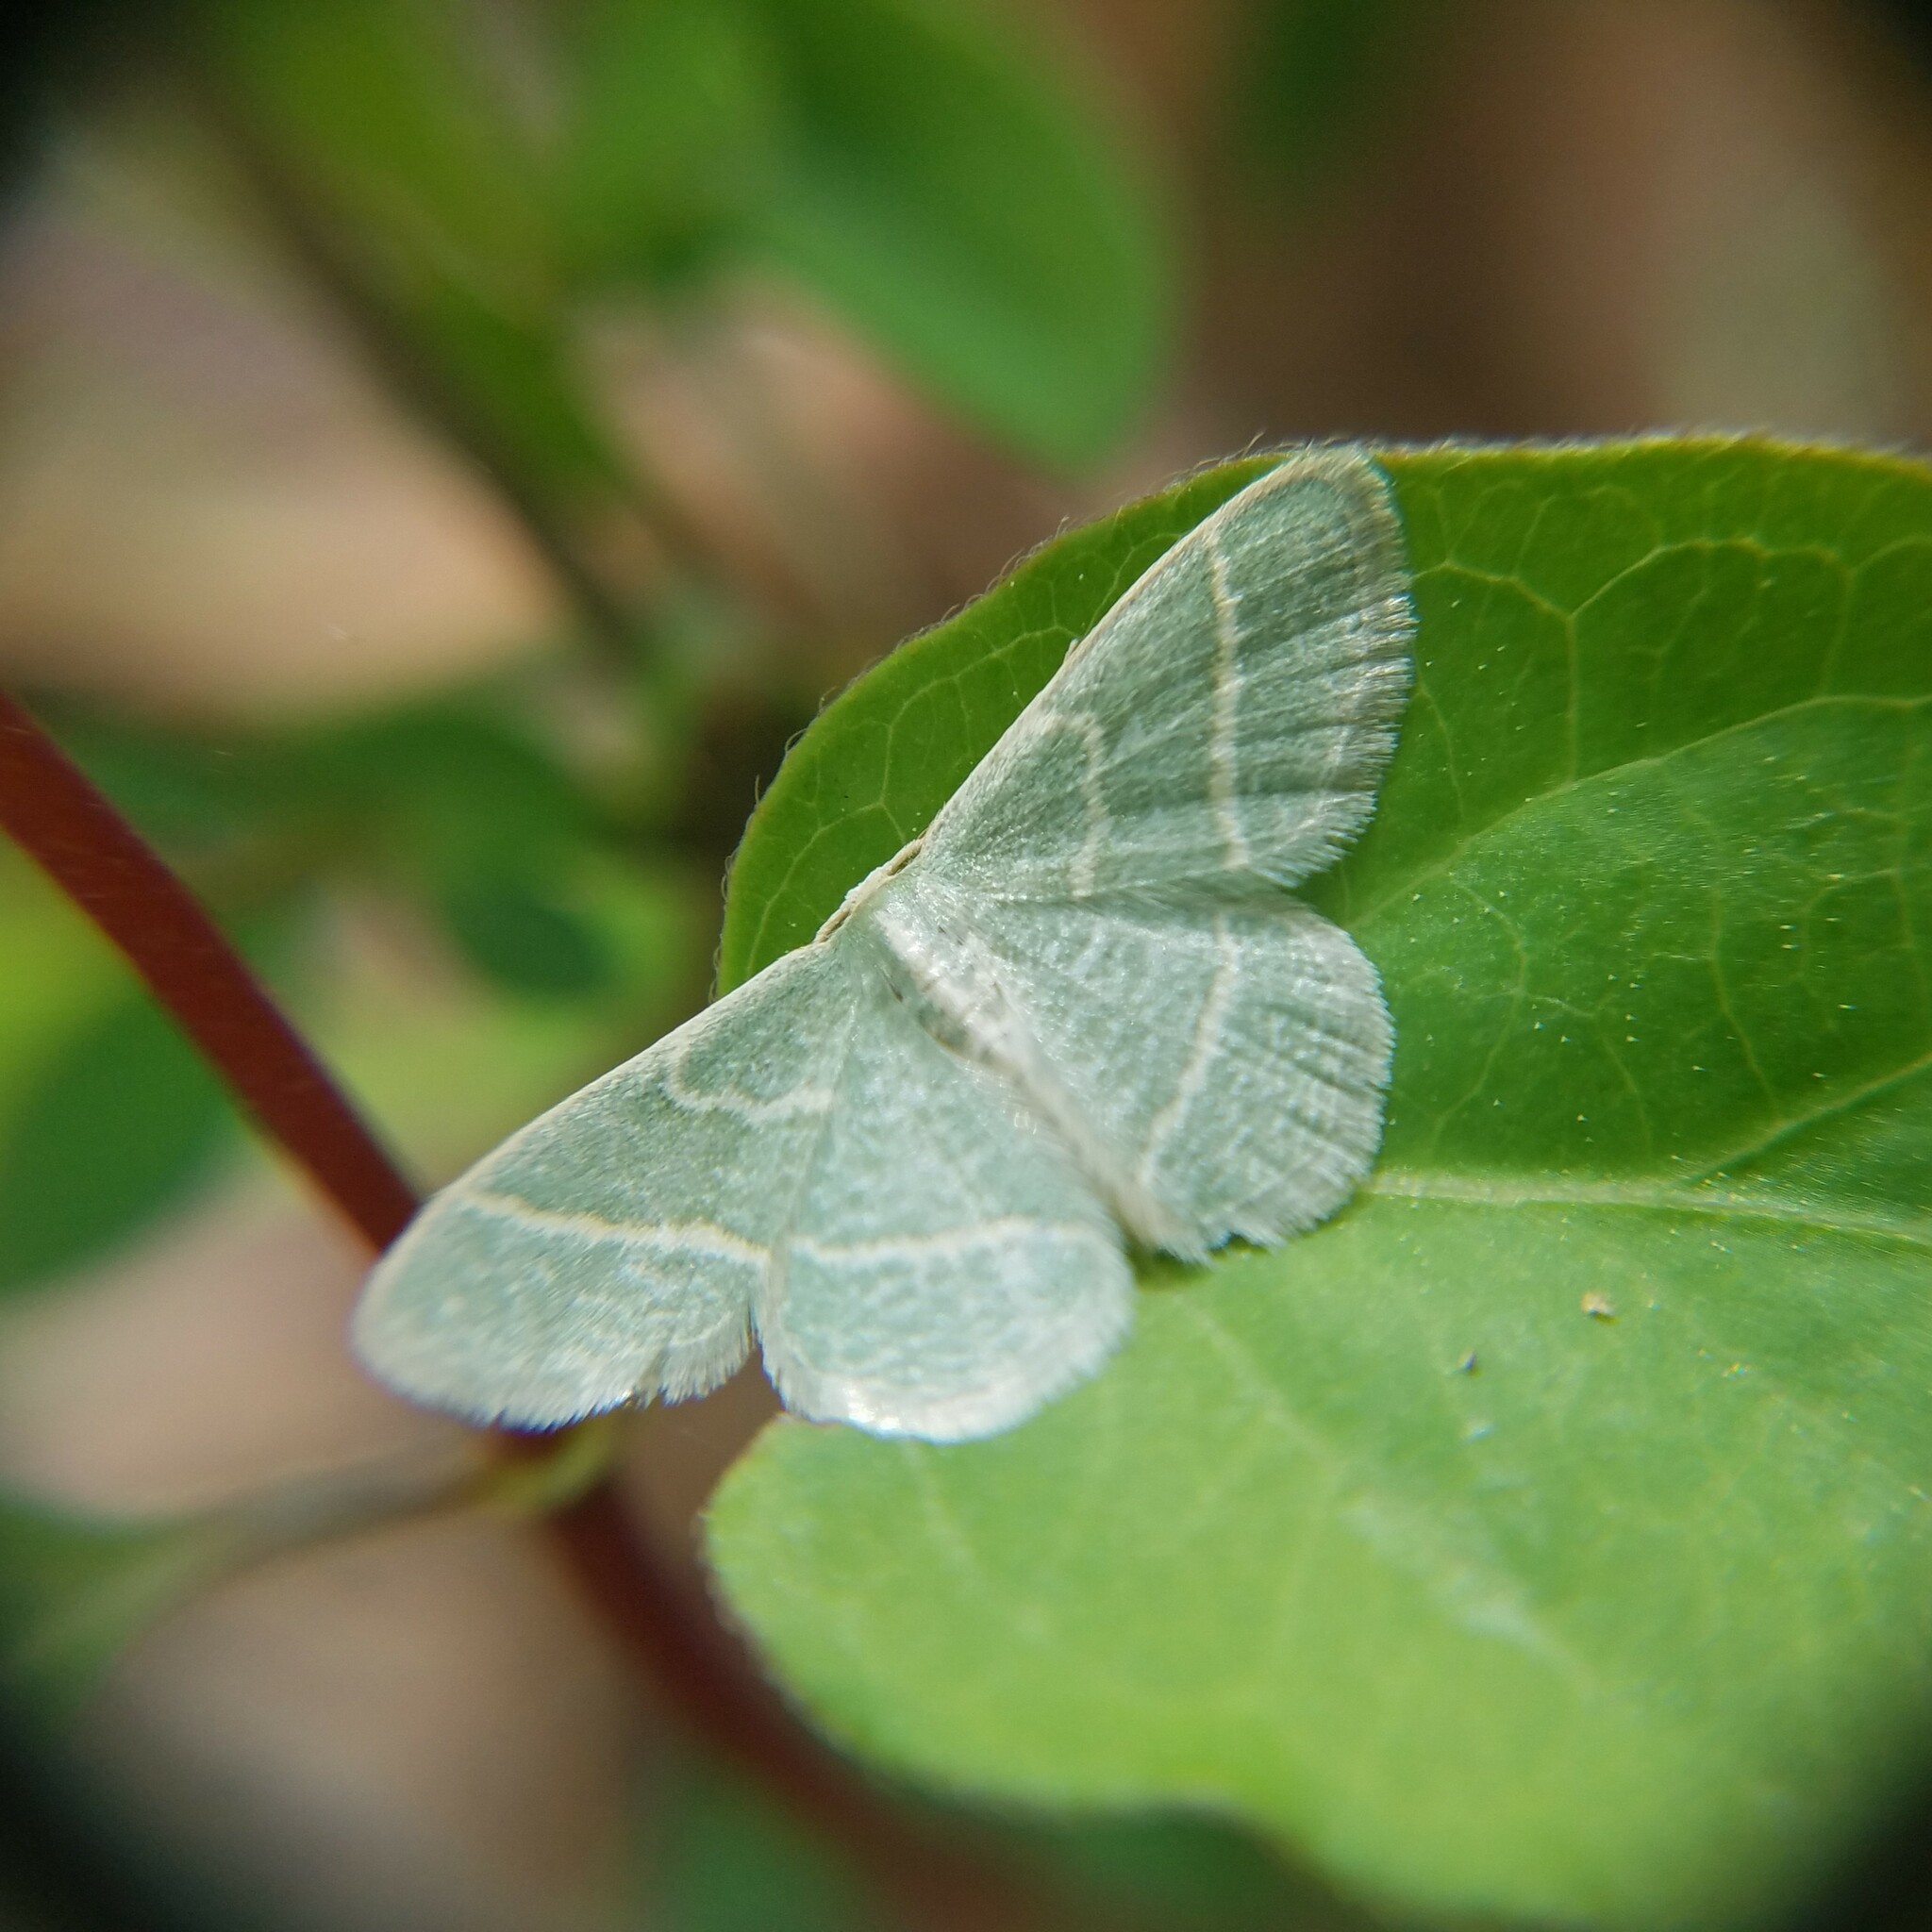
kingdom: Animalia
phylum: Arthropoda
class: Insecta
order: Lepidoptera
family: Geometridae
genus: Chlorochlamys
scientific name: Chlorochlamys chloroleucaria
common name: Blackberry looper
